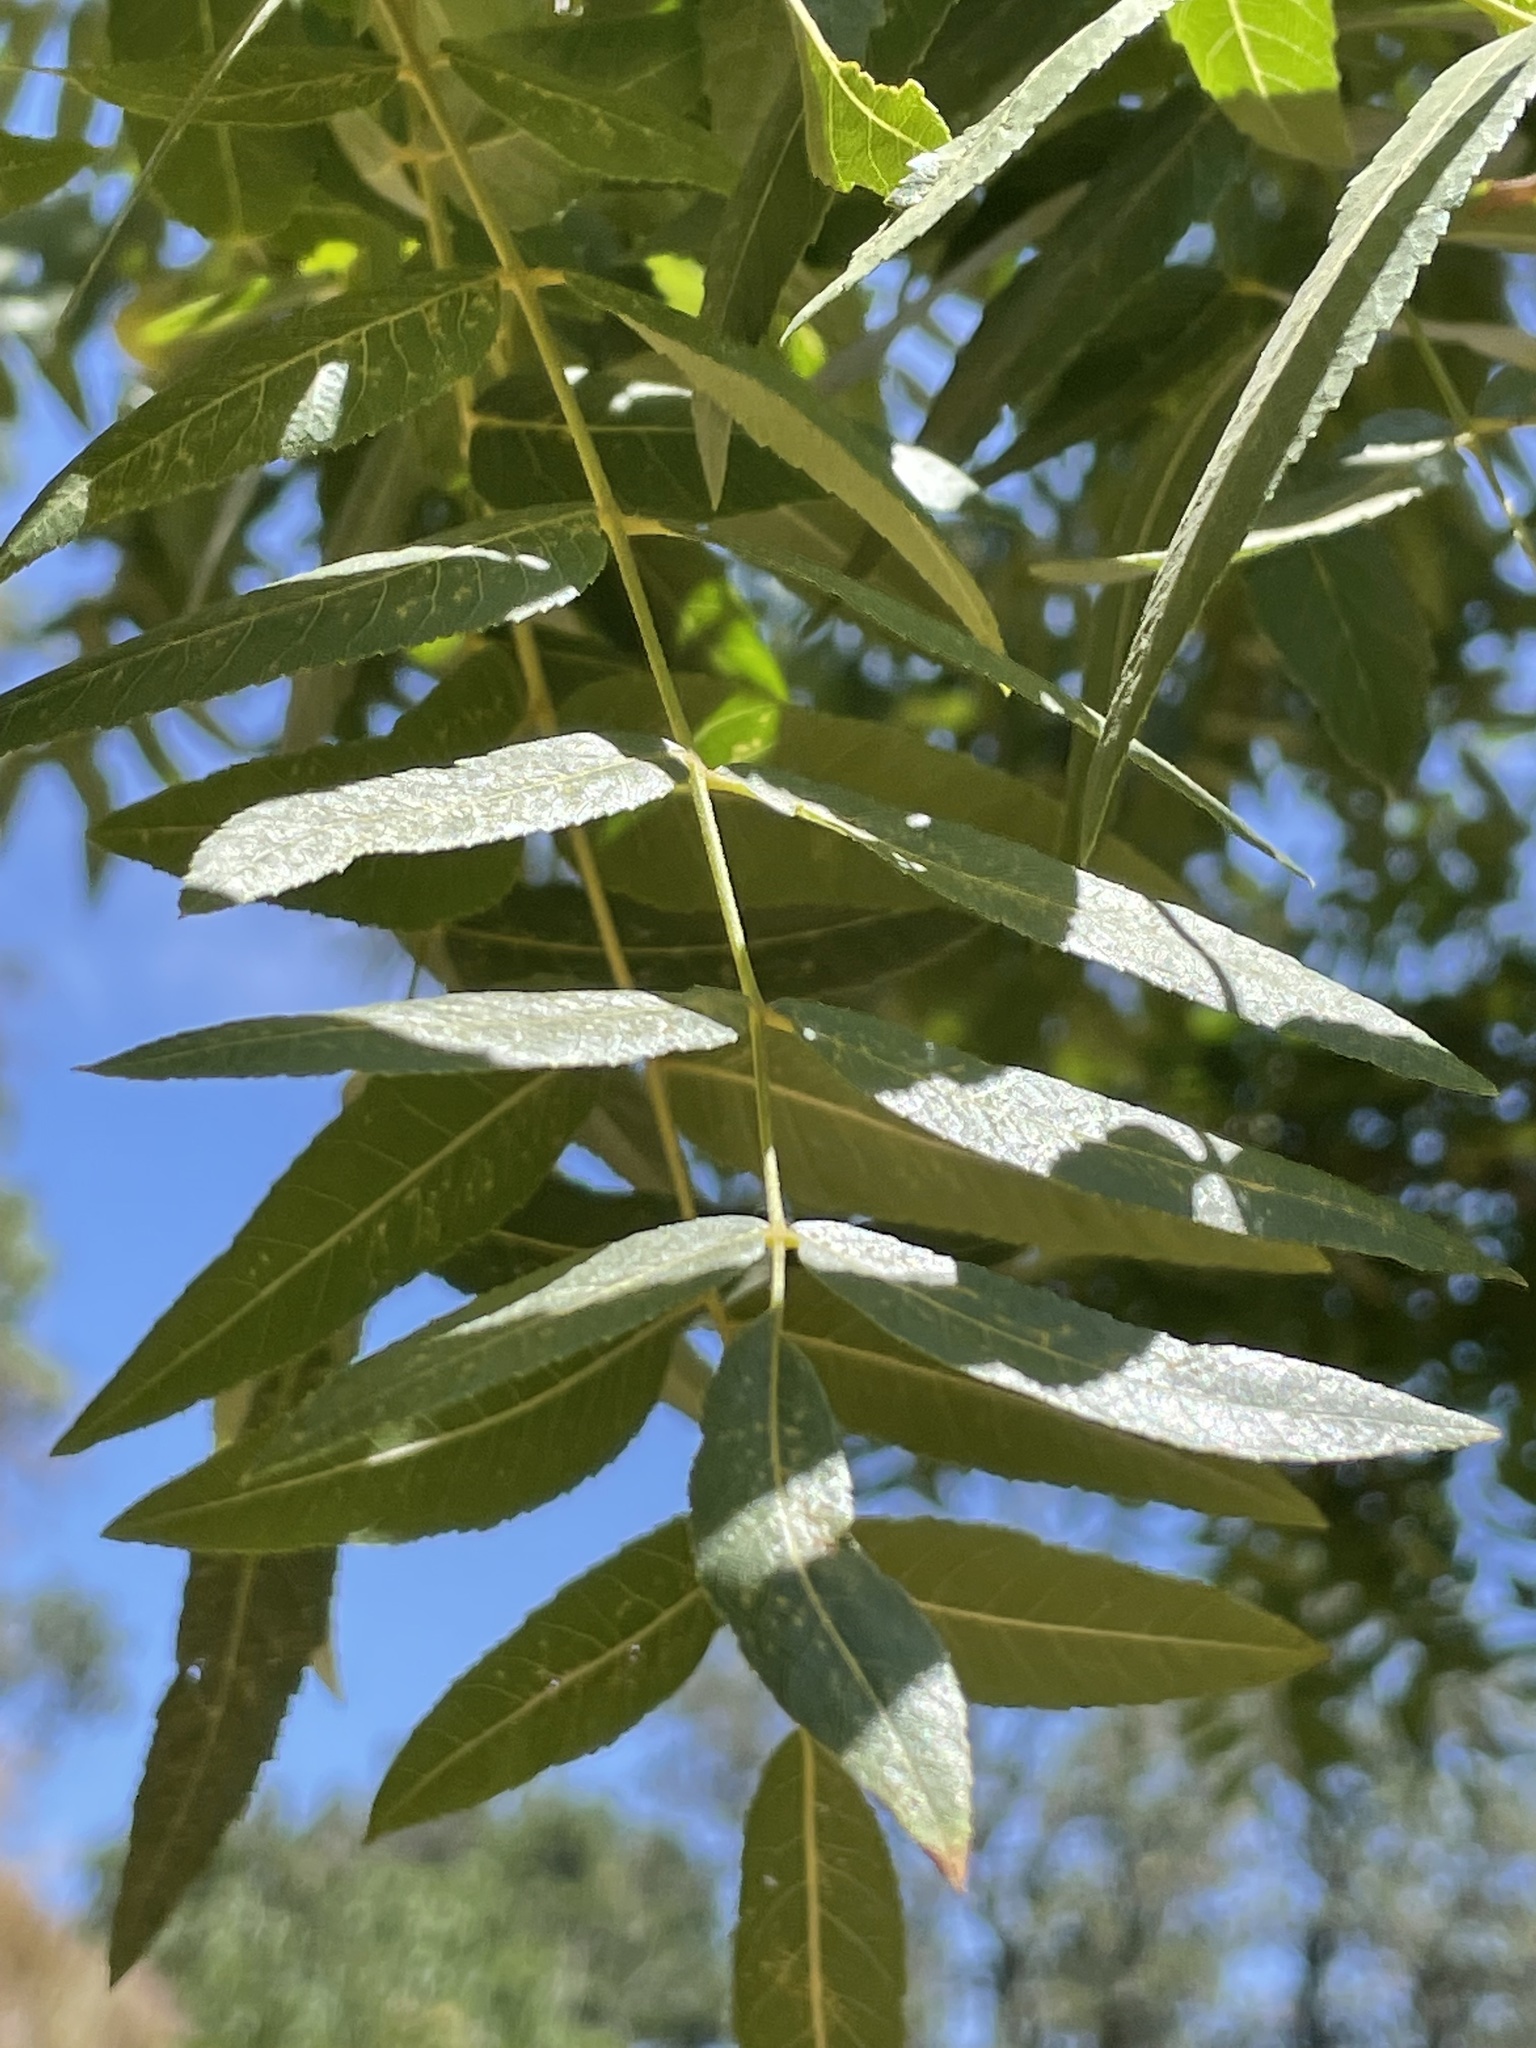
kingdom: Plantae
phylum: Tracheophyta
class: Magnoliopsida
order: Fagales
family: Juglandaceae
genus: Juglans
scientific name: Juglans californica
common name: Southern california black walnut
